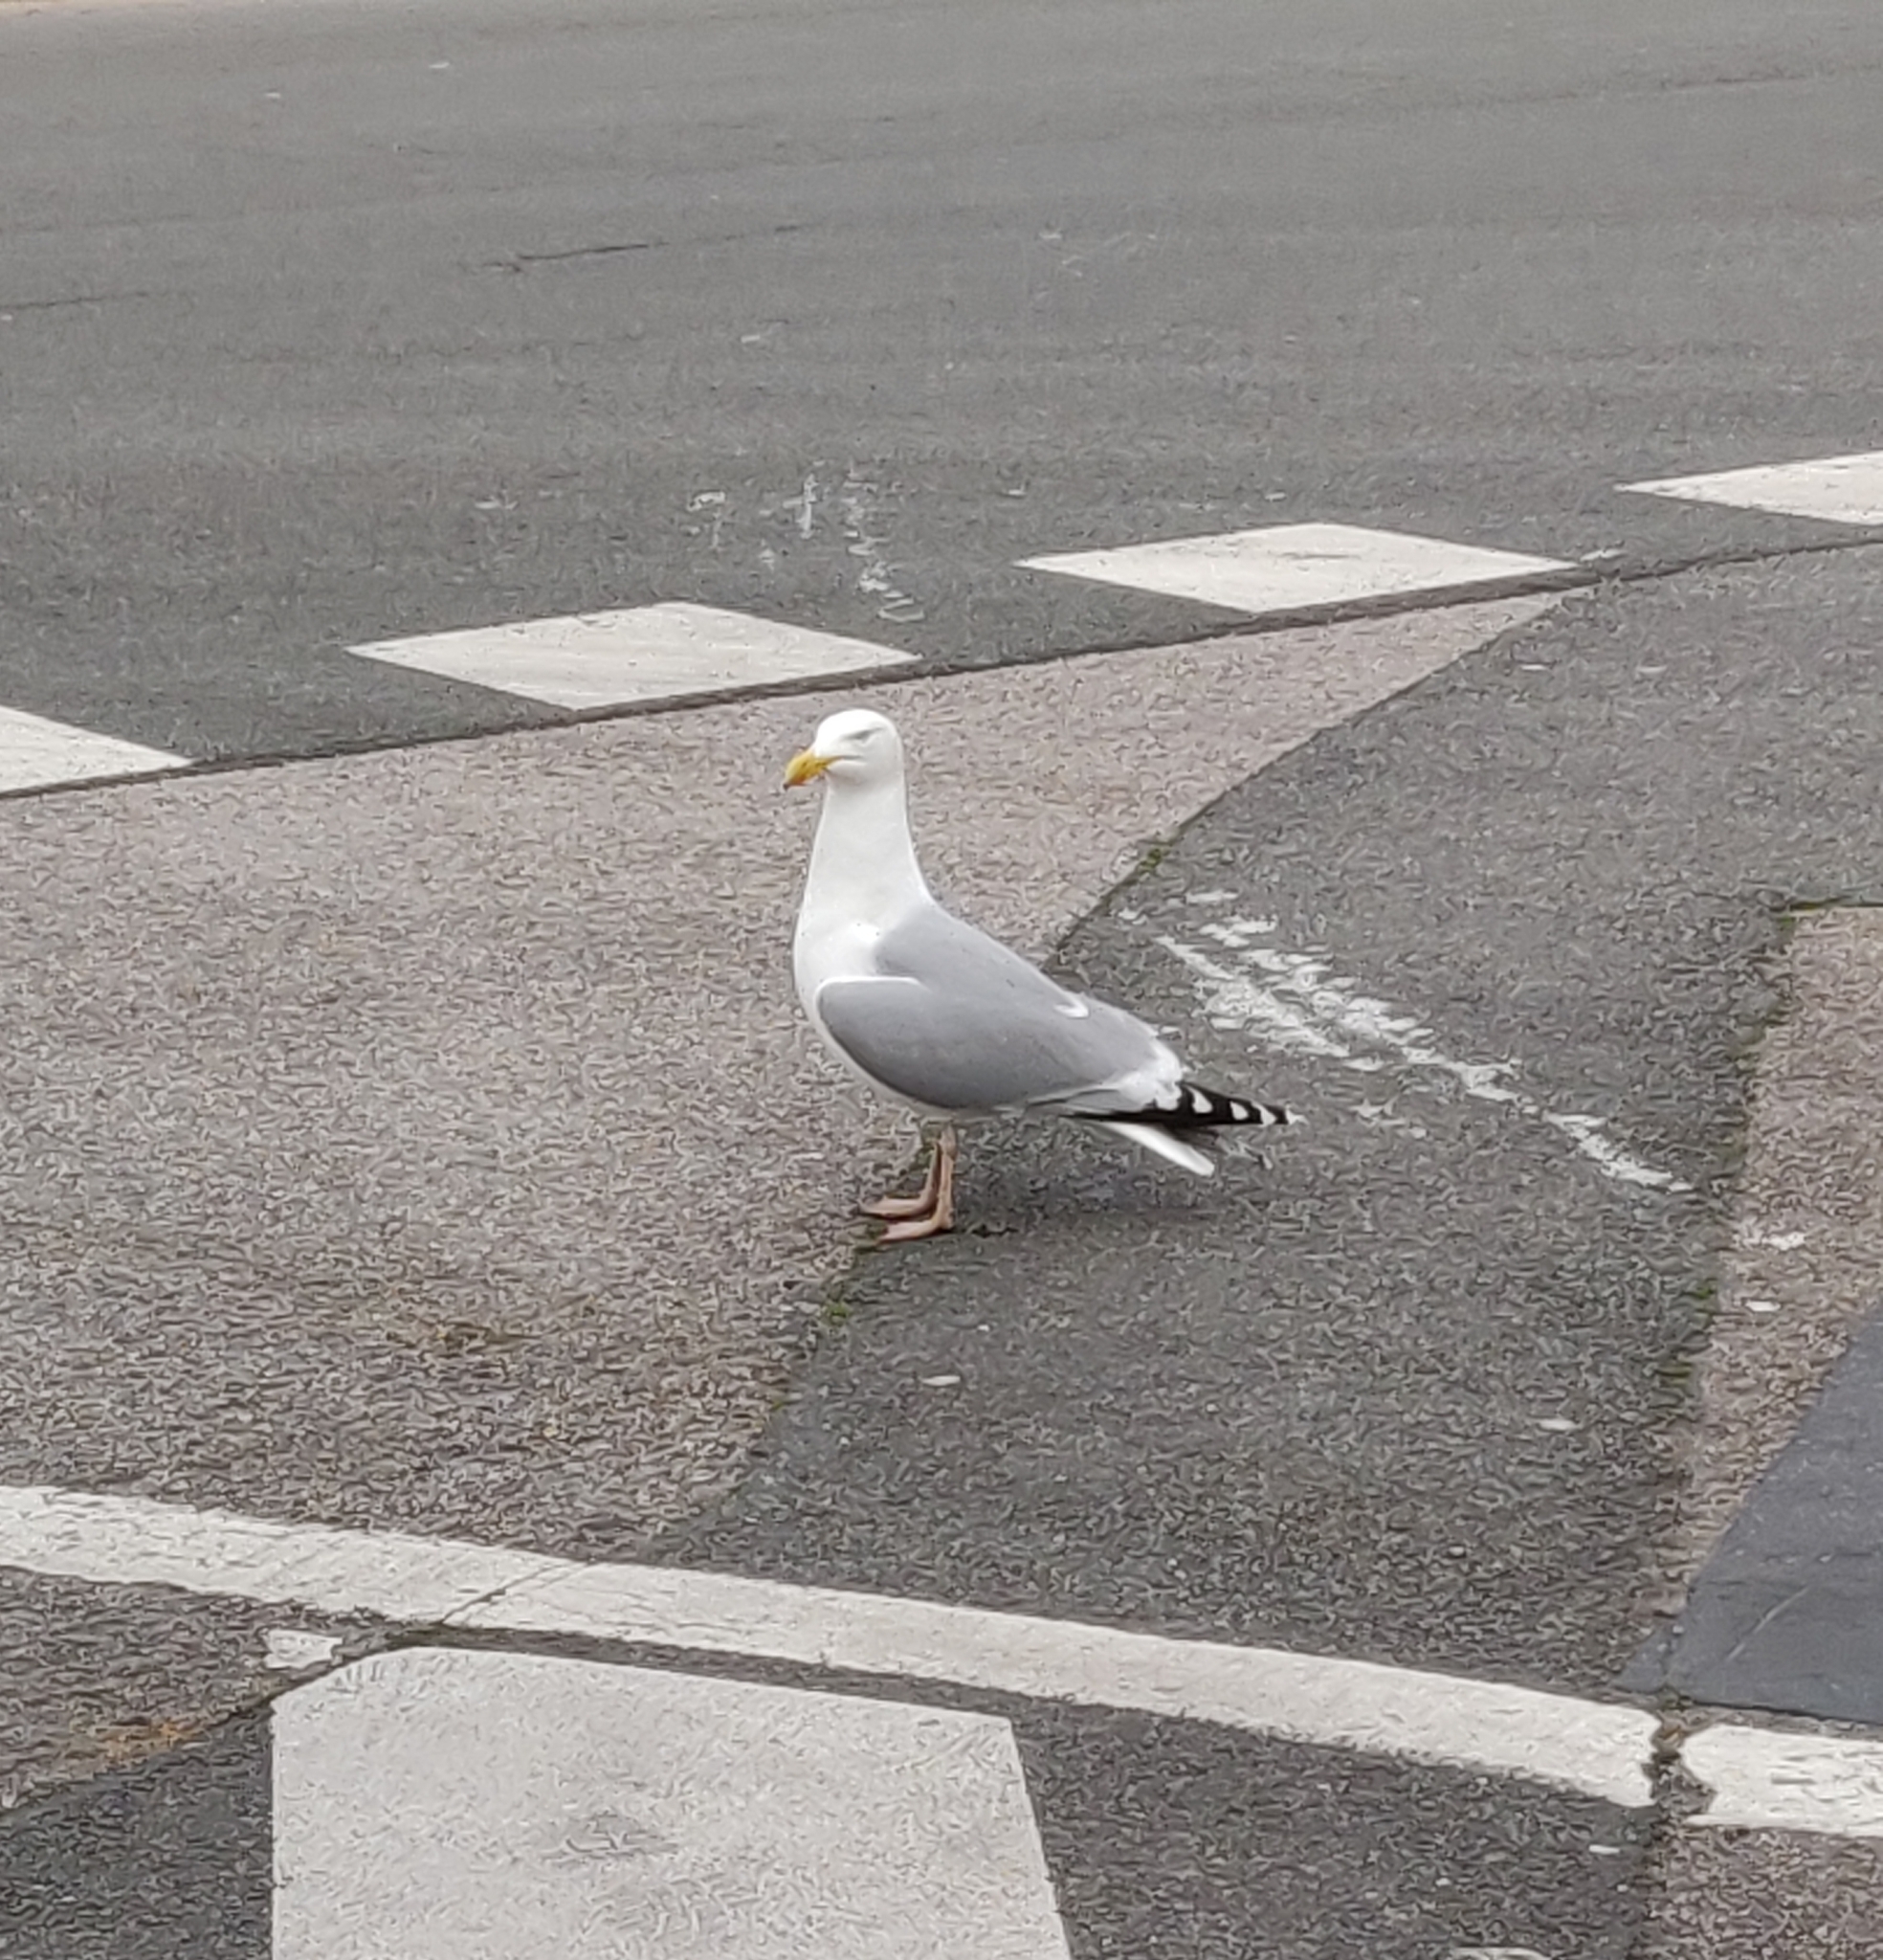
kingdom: Animalia
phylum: Chordata
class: Aves
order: Charadriiformes
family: Laridae
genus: Larus
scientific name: Larus argentatus
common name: Herring gull
